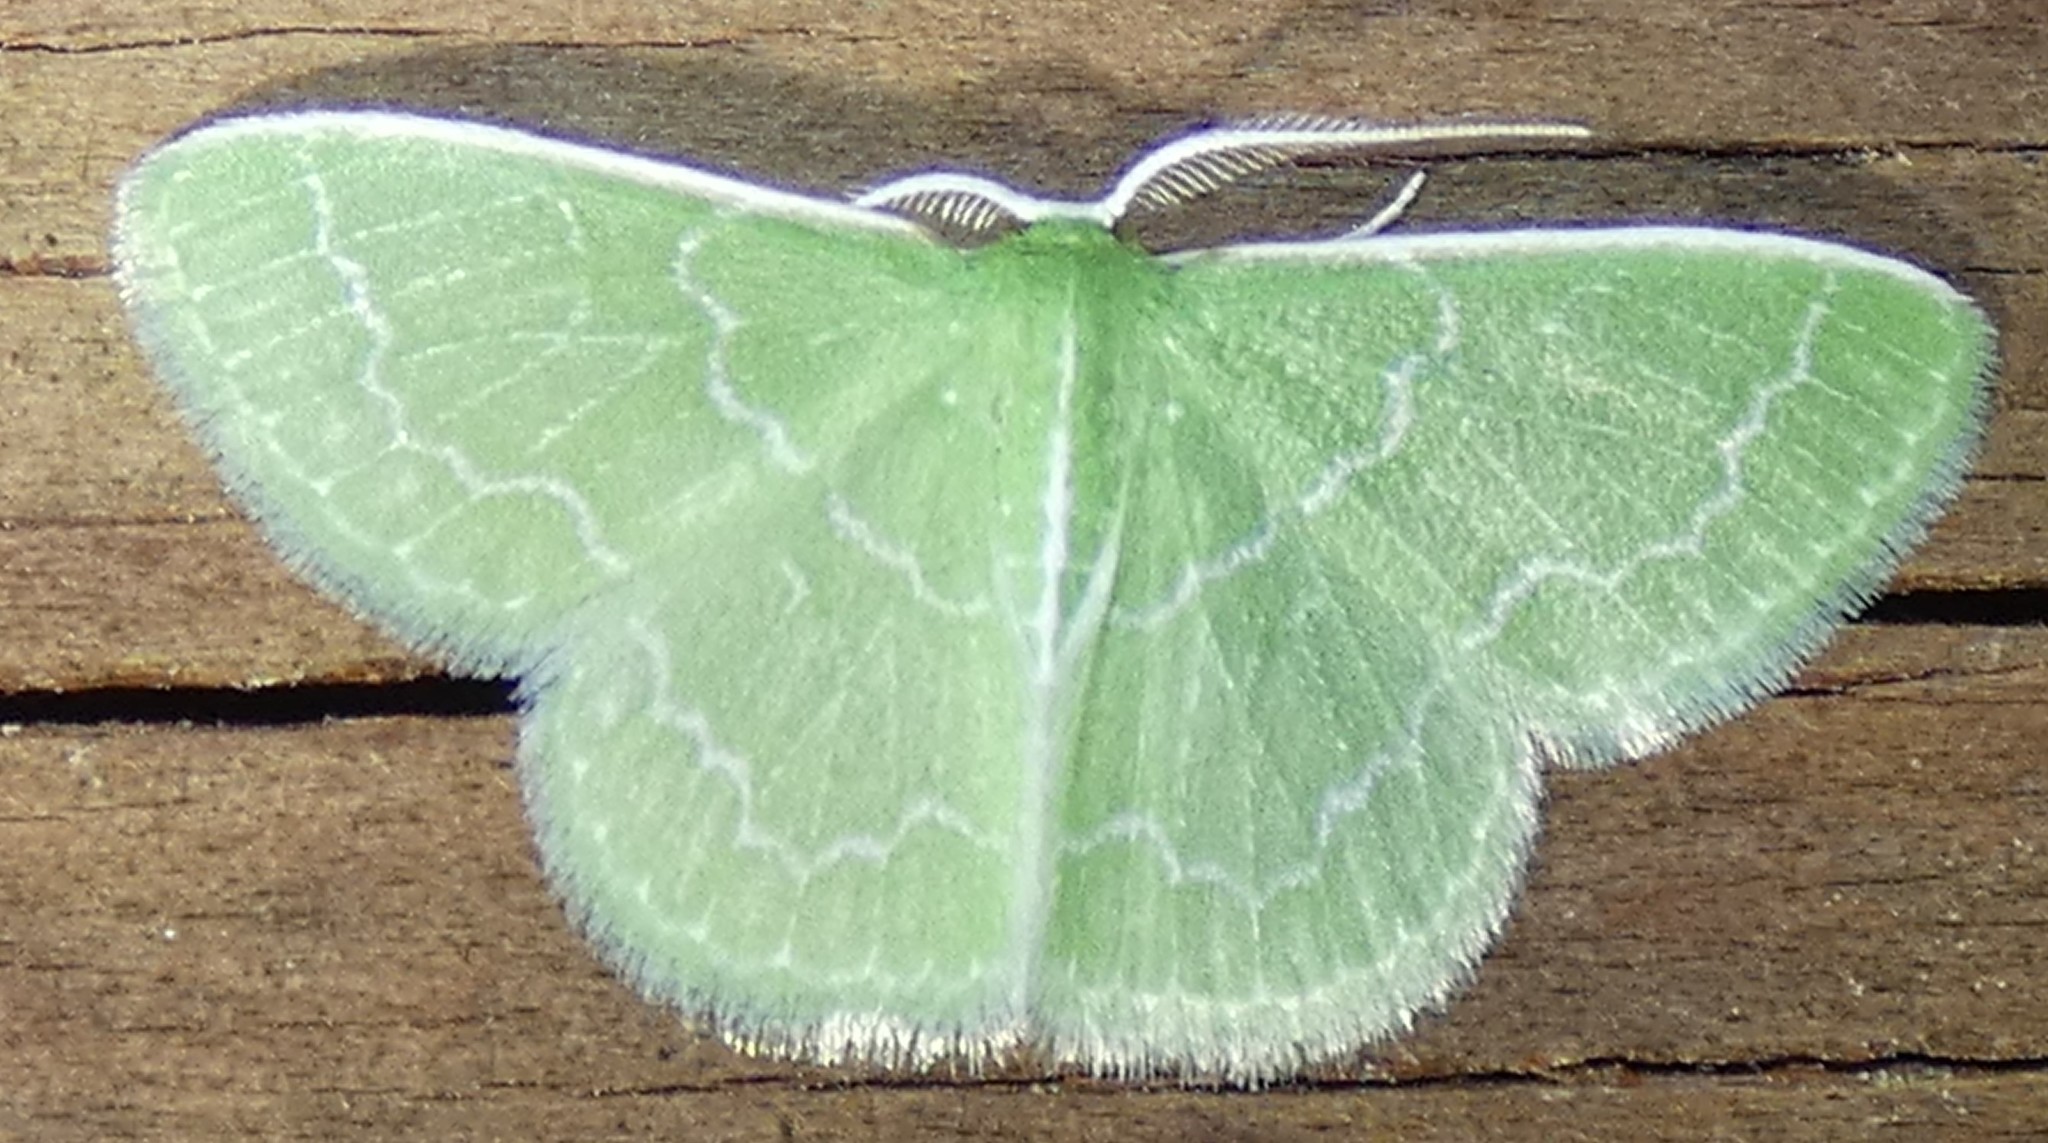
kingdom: Animalia
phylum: Arthropoda
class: Insecta
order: Lepidoptera
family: Geometridae
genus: Synchlora
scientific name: Synchlora frondaria
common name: Southern emerald
